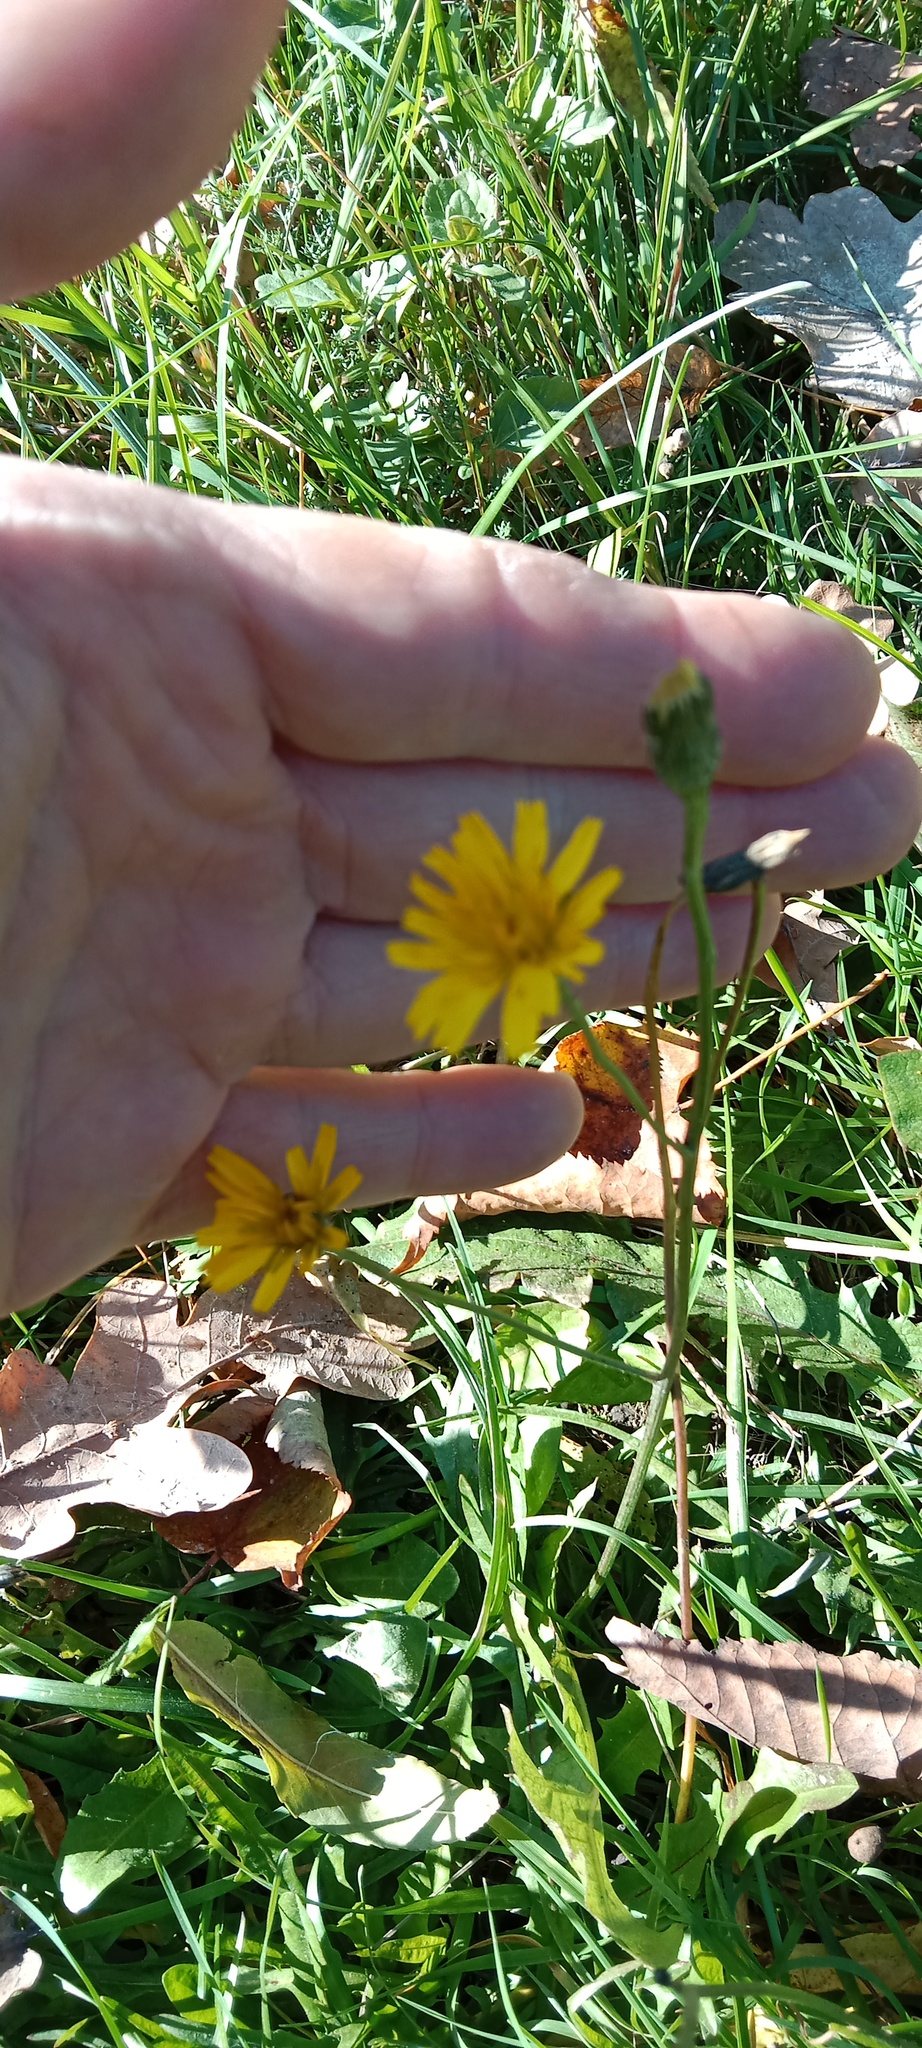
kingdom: Plantae
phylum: Tracheophyta
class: Magnoliopsida
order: Asterales
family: Asteraceae
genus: Scorzoneroides
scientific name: Scorzoneroides autumnalis
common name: Autumn hawkbit
